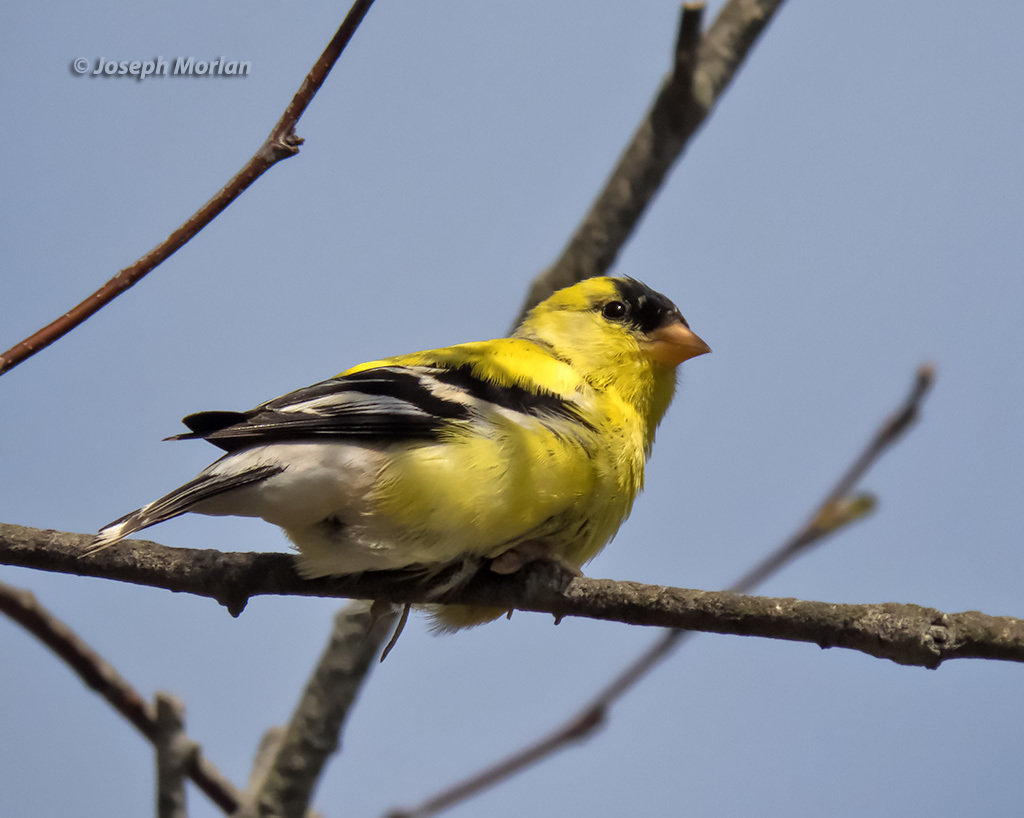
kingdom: Animalia
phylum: Chordata
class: Aves
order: Passeriformes
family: Fringillidae
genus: Spinus
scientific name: Spinus tristis
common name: American goldfinch
